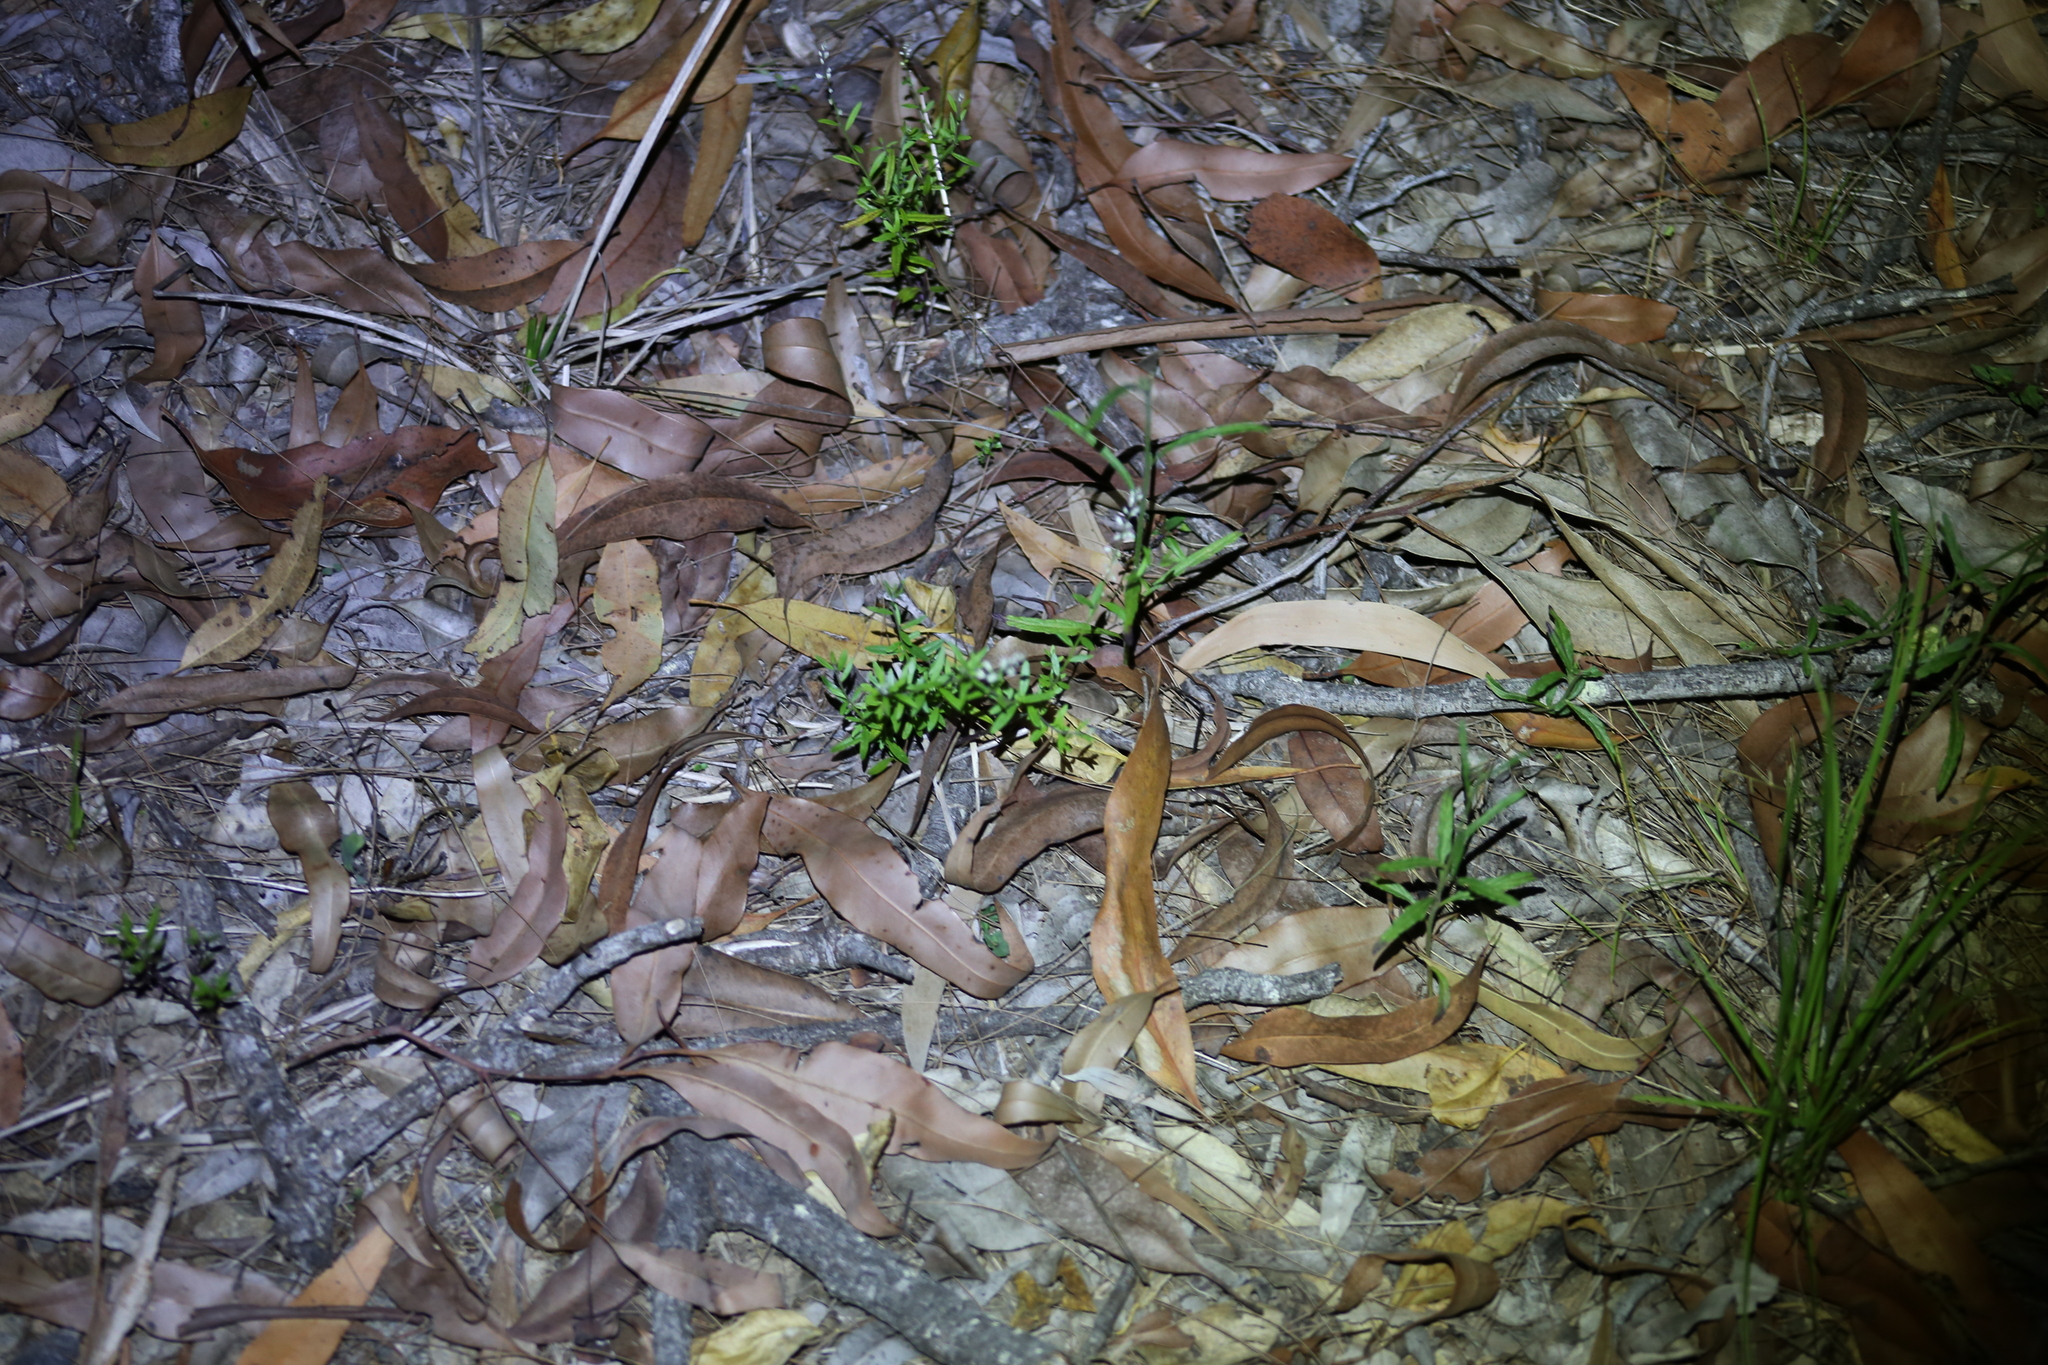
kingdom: Plantae
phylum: Tracheophyta
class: Magnoliopsida
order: Fabales
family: Polygalaceae
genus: Polygala
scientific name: Polygala paniculata
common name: Orosne
